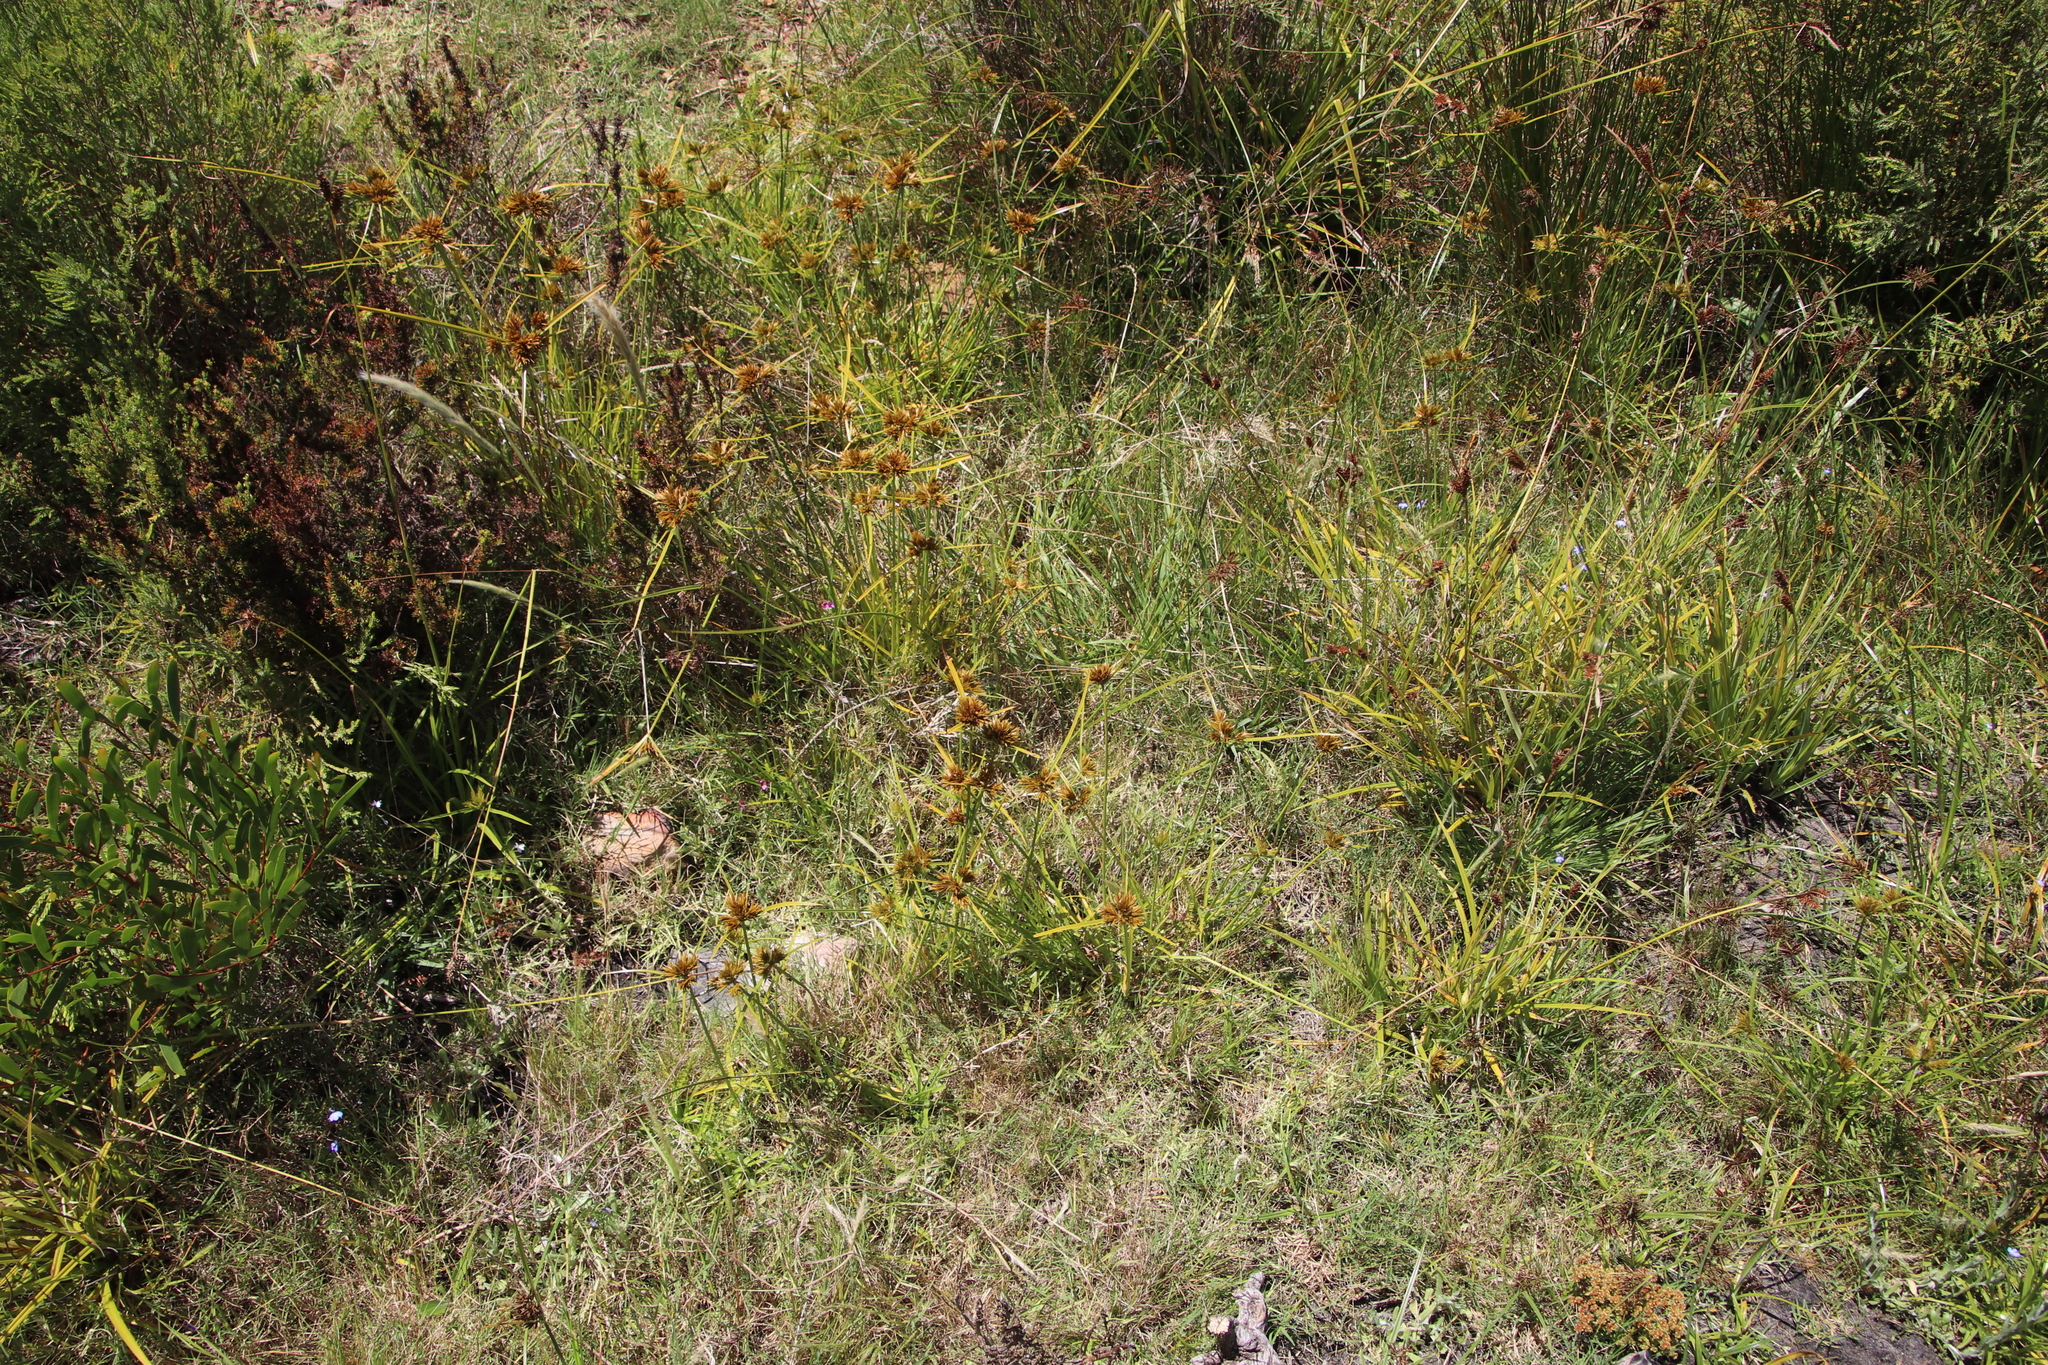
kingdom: Plantae
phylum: Tracheophyta
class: Liliopsida
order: Poales
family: Cyperaceae
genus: Cyperus
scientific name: Cyperus polystachyos
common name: Bunchy flat sedge
